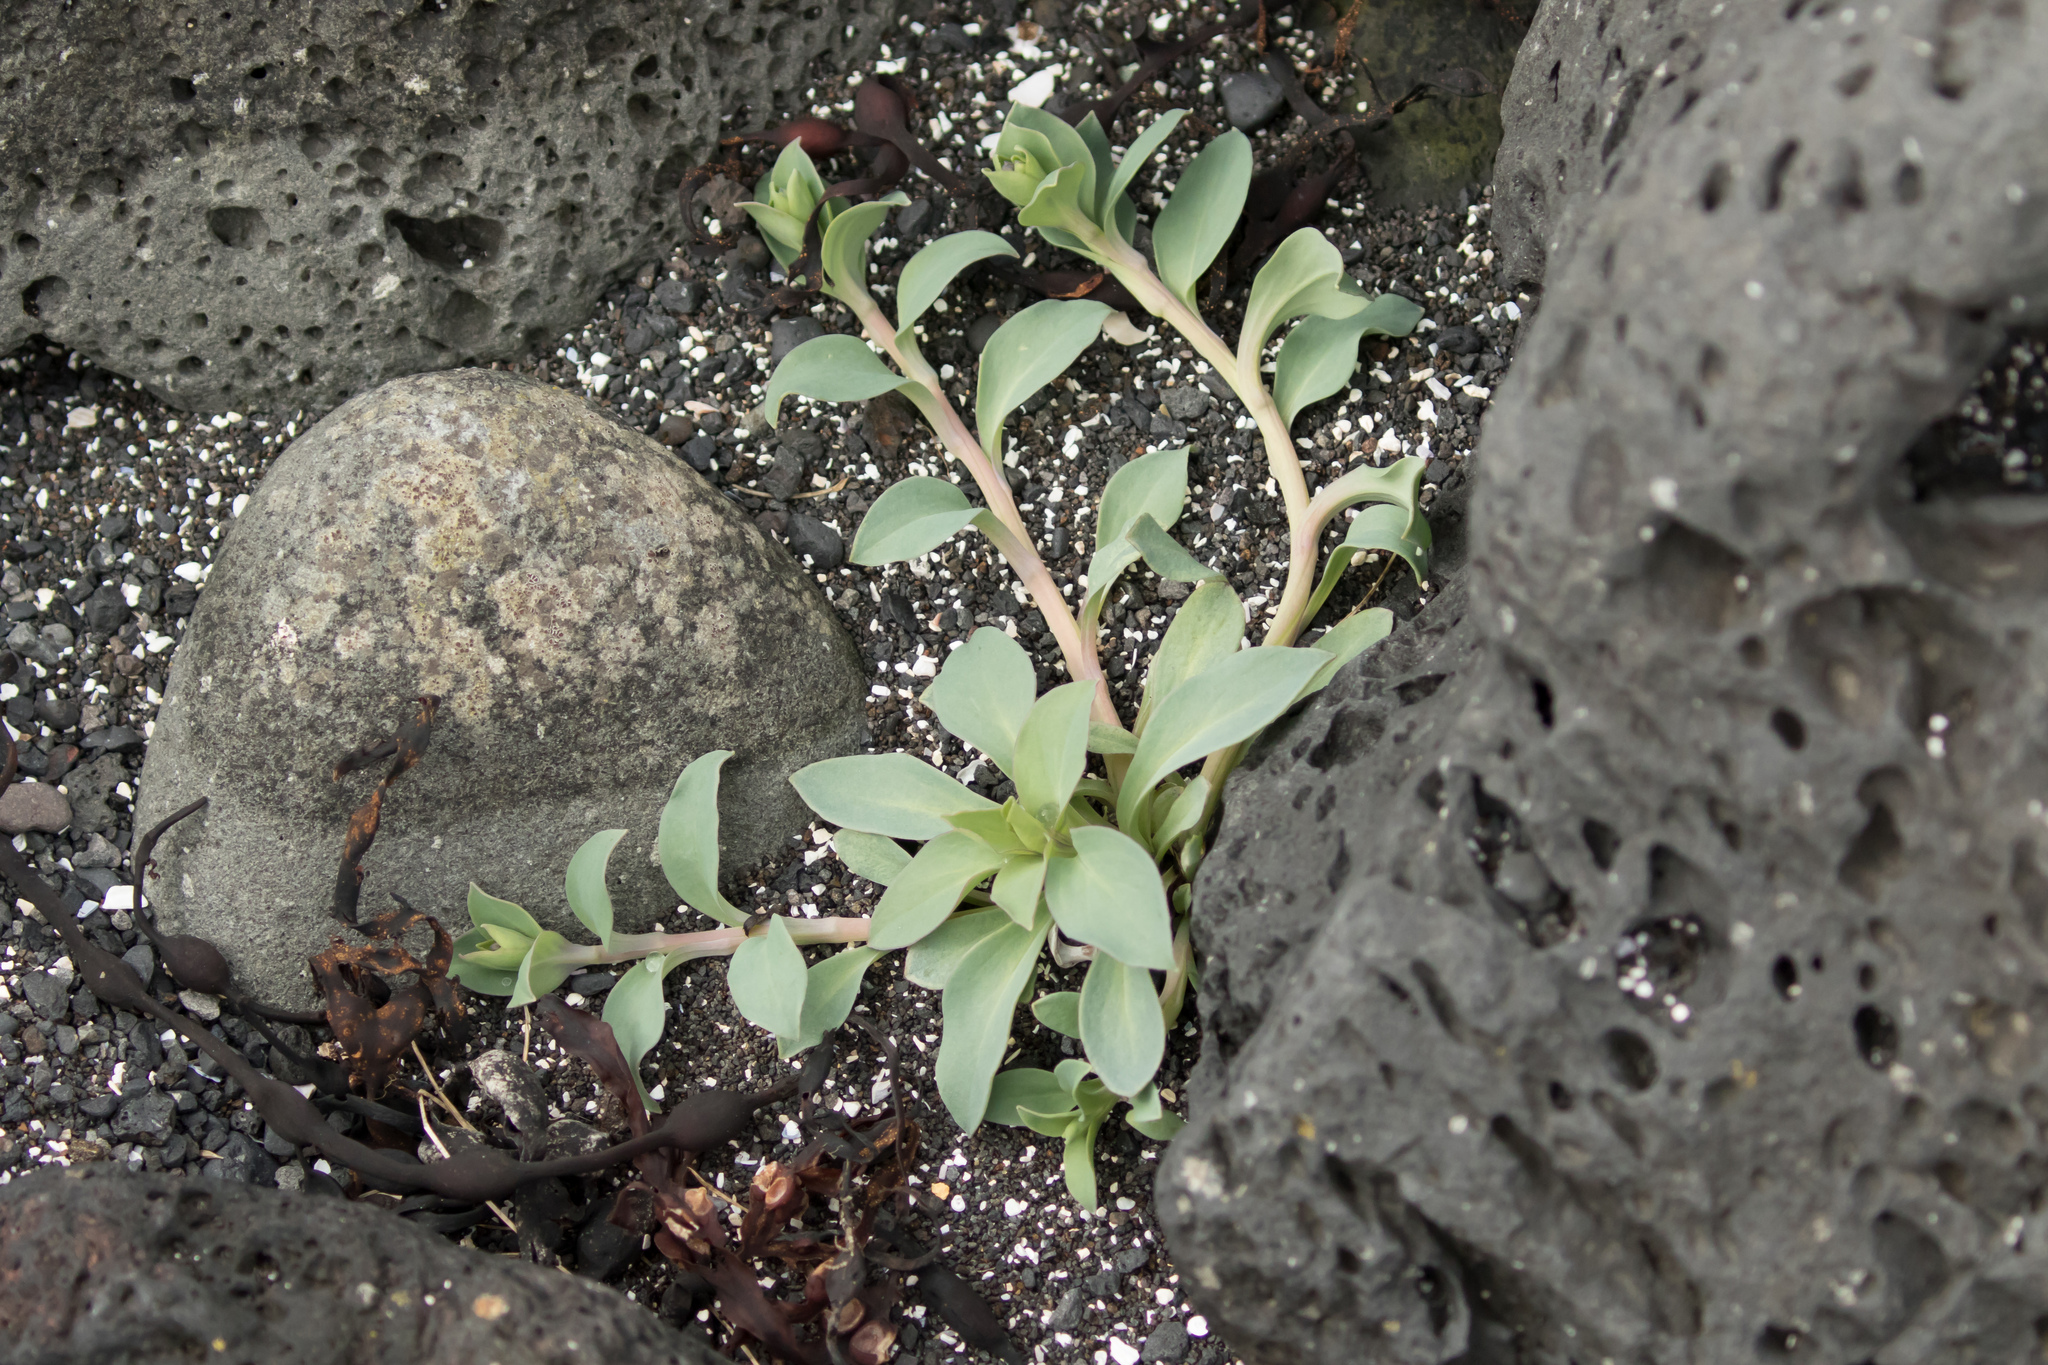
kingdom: Plantae
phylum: Tracheophyta
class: Magnoliopsida
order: Boraginales
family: Boraginaceae
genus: Mertensia
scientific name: Mertensia maritima
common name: Oysterplant
